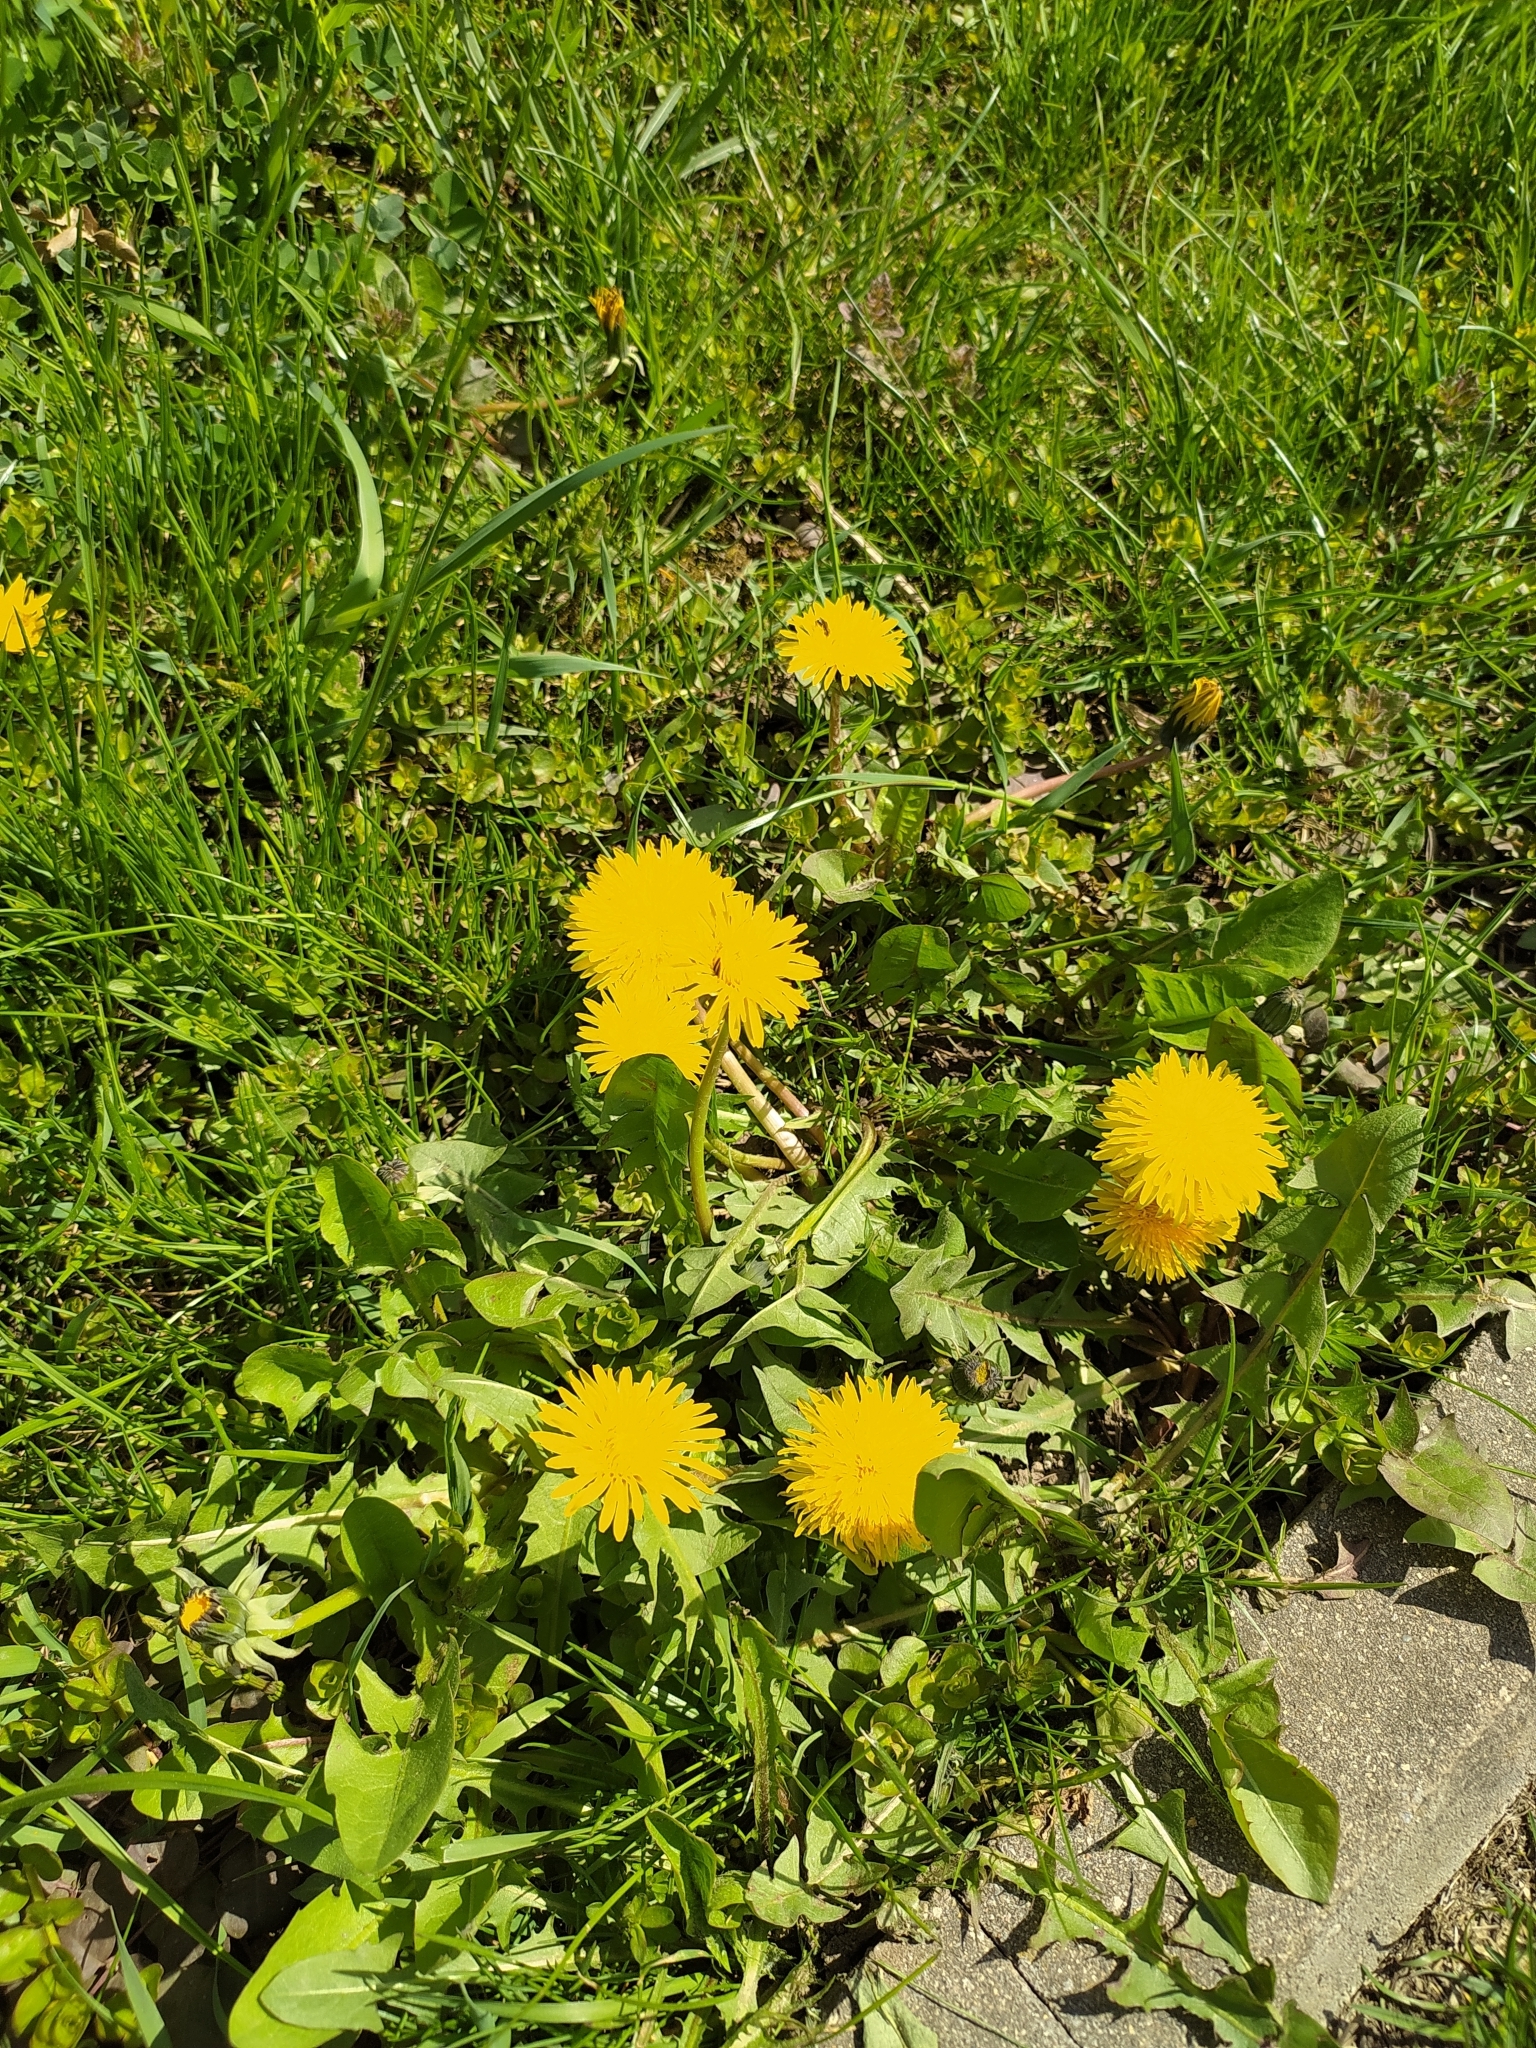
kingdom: Plantae
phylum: Tracheophyta
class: Magnoliopsida
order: Asterales
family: Asteraceae
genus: Taraxacum
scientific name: Taraxacum officinale
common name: Common dandelion
